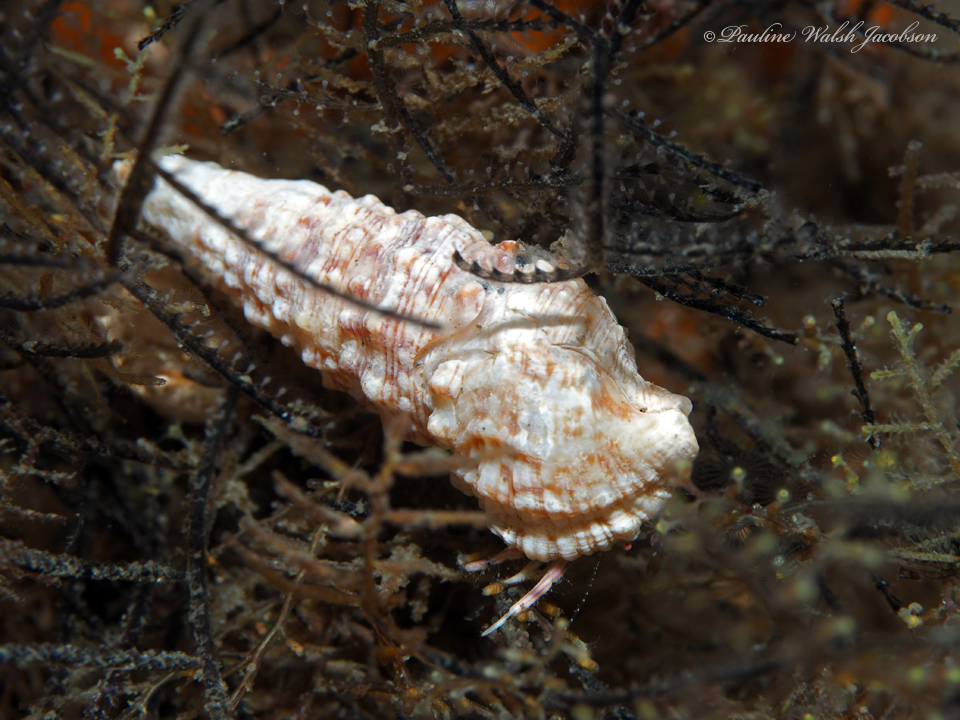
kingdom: Animalia
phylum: Arthropoda
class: Malacostraca
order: Decapoda
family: Paguridae
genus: Pagurus
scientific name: Pagurus brevidactylus
